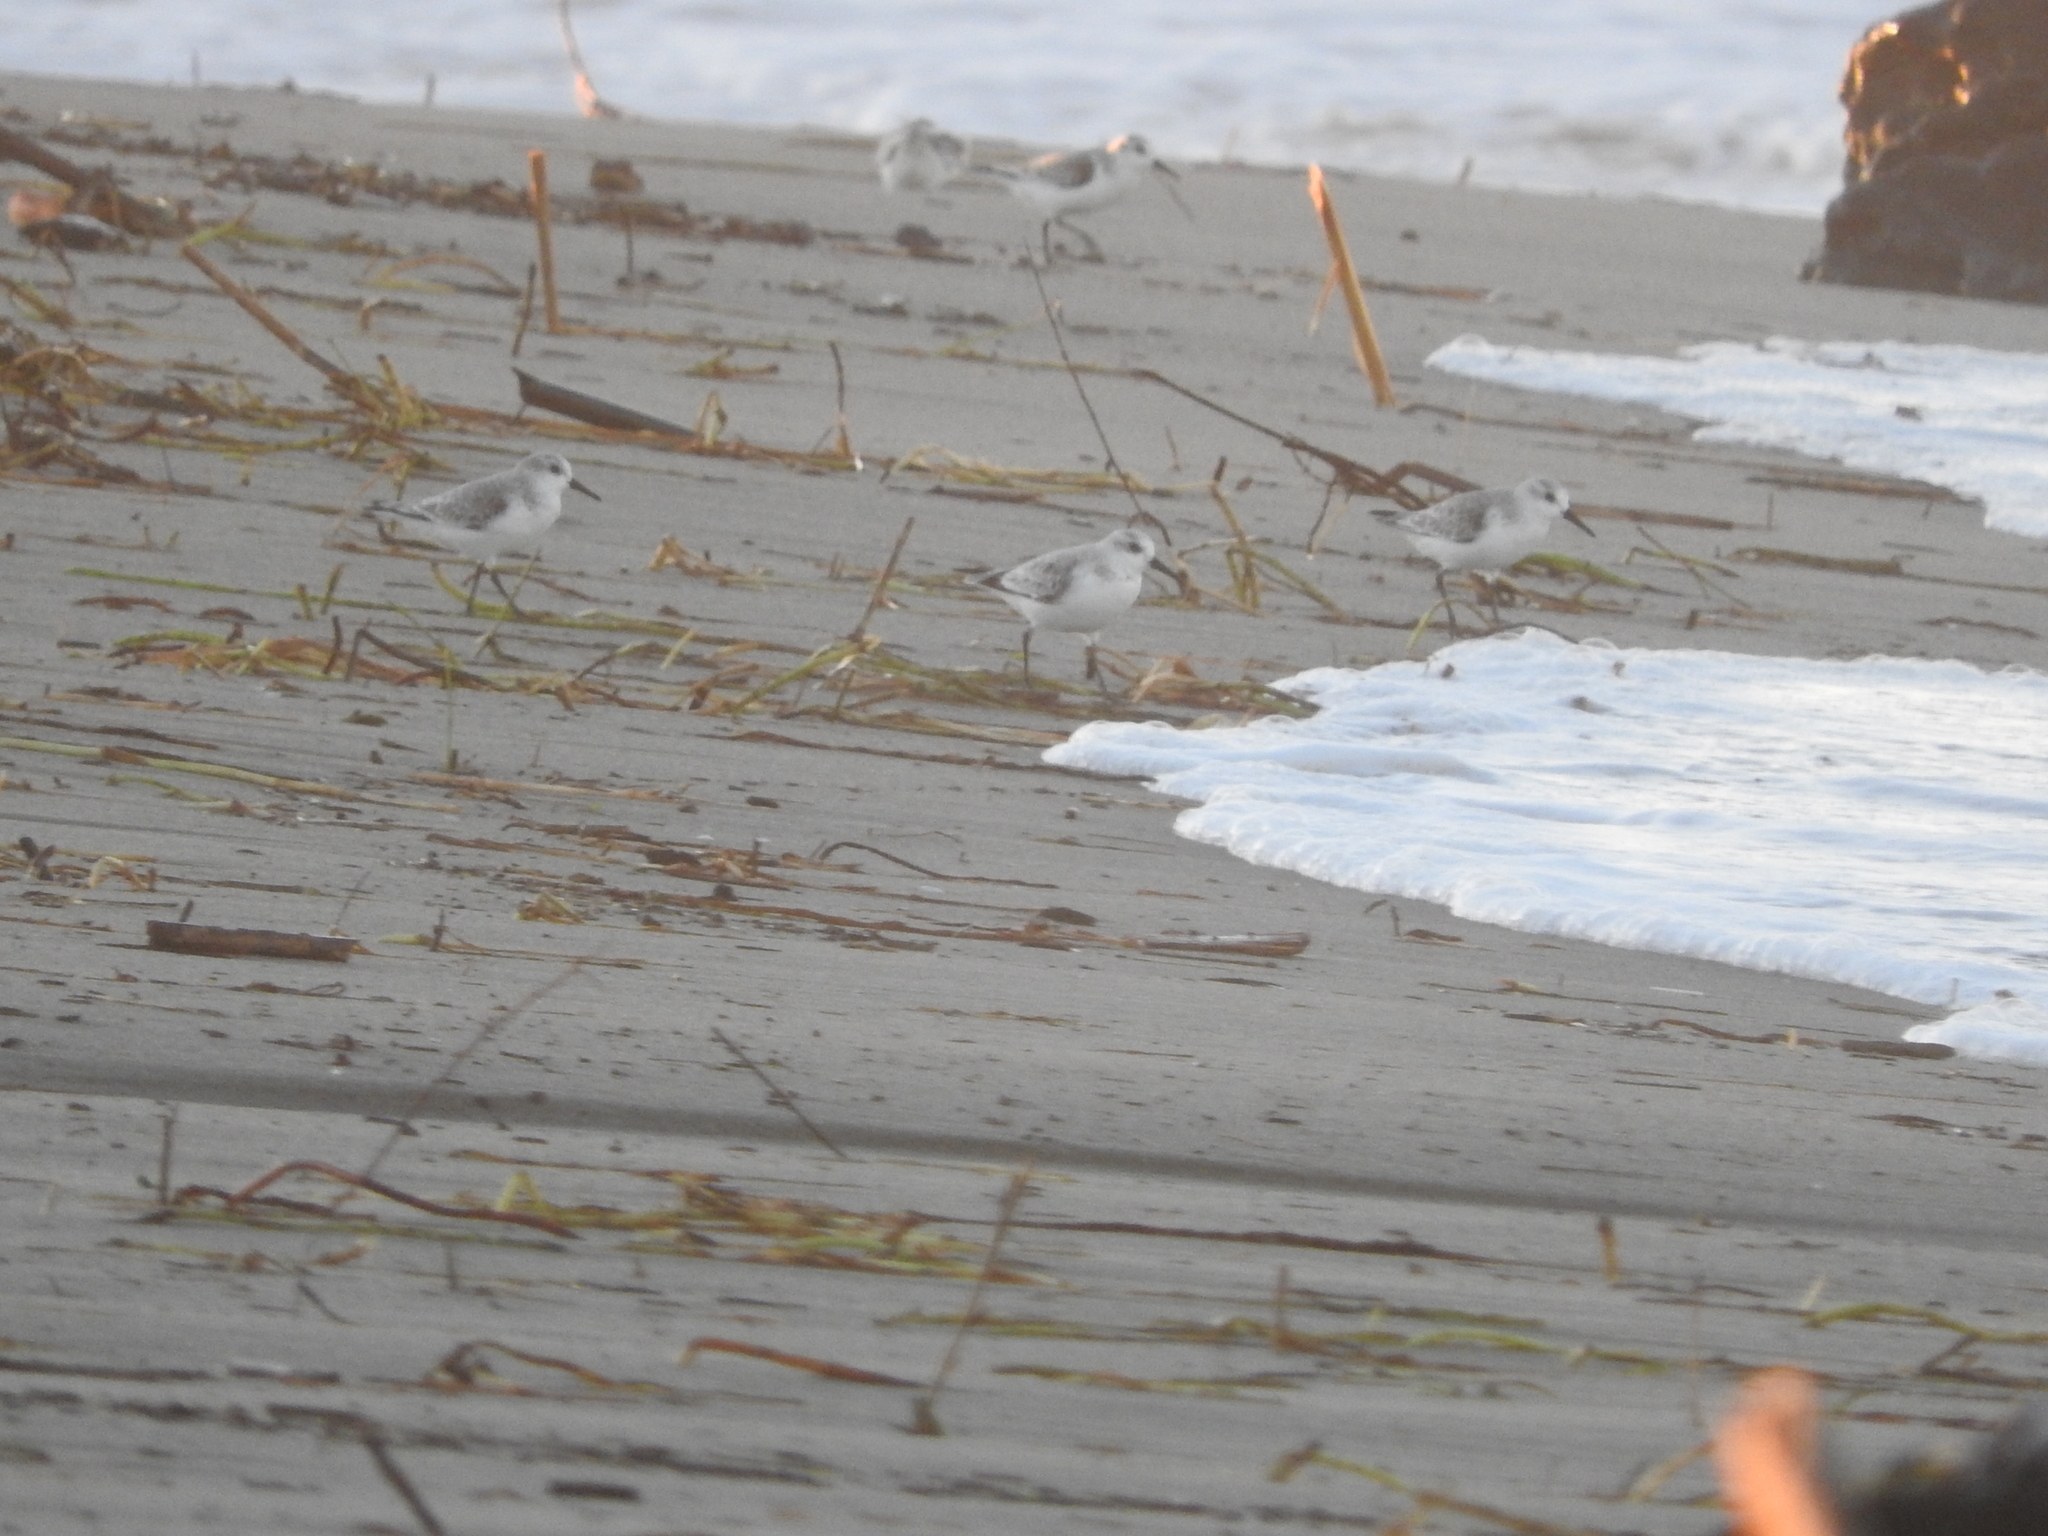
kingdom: Animalia
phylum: Chordata
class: Aves
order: Charadriiformes
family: Scolopacidae
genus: Calidris
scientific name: Calidris alba
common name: Sanderling
